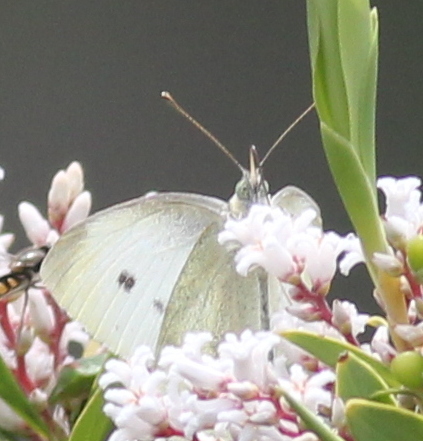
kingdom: Animalia
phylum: Arthropoda
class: Insecta
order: Lepidoptera
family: Pieridae
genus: Pieris
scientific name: Pieris rapae
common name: Small white
